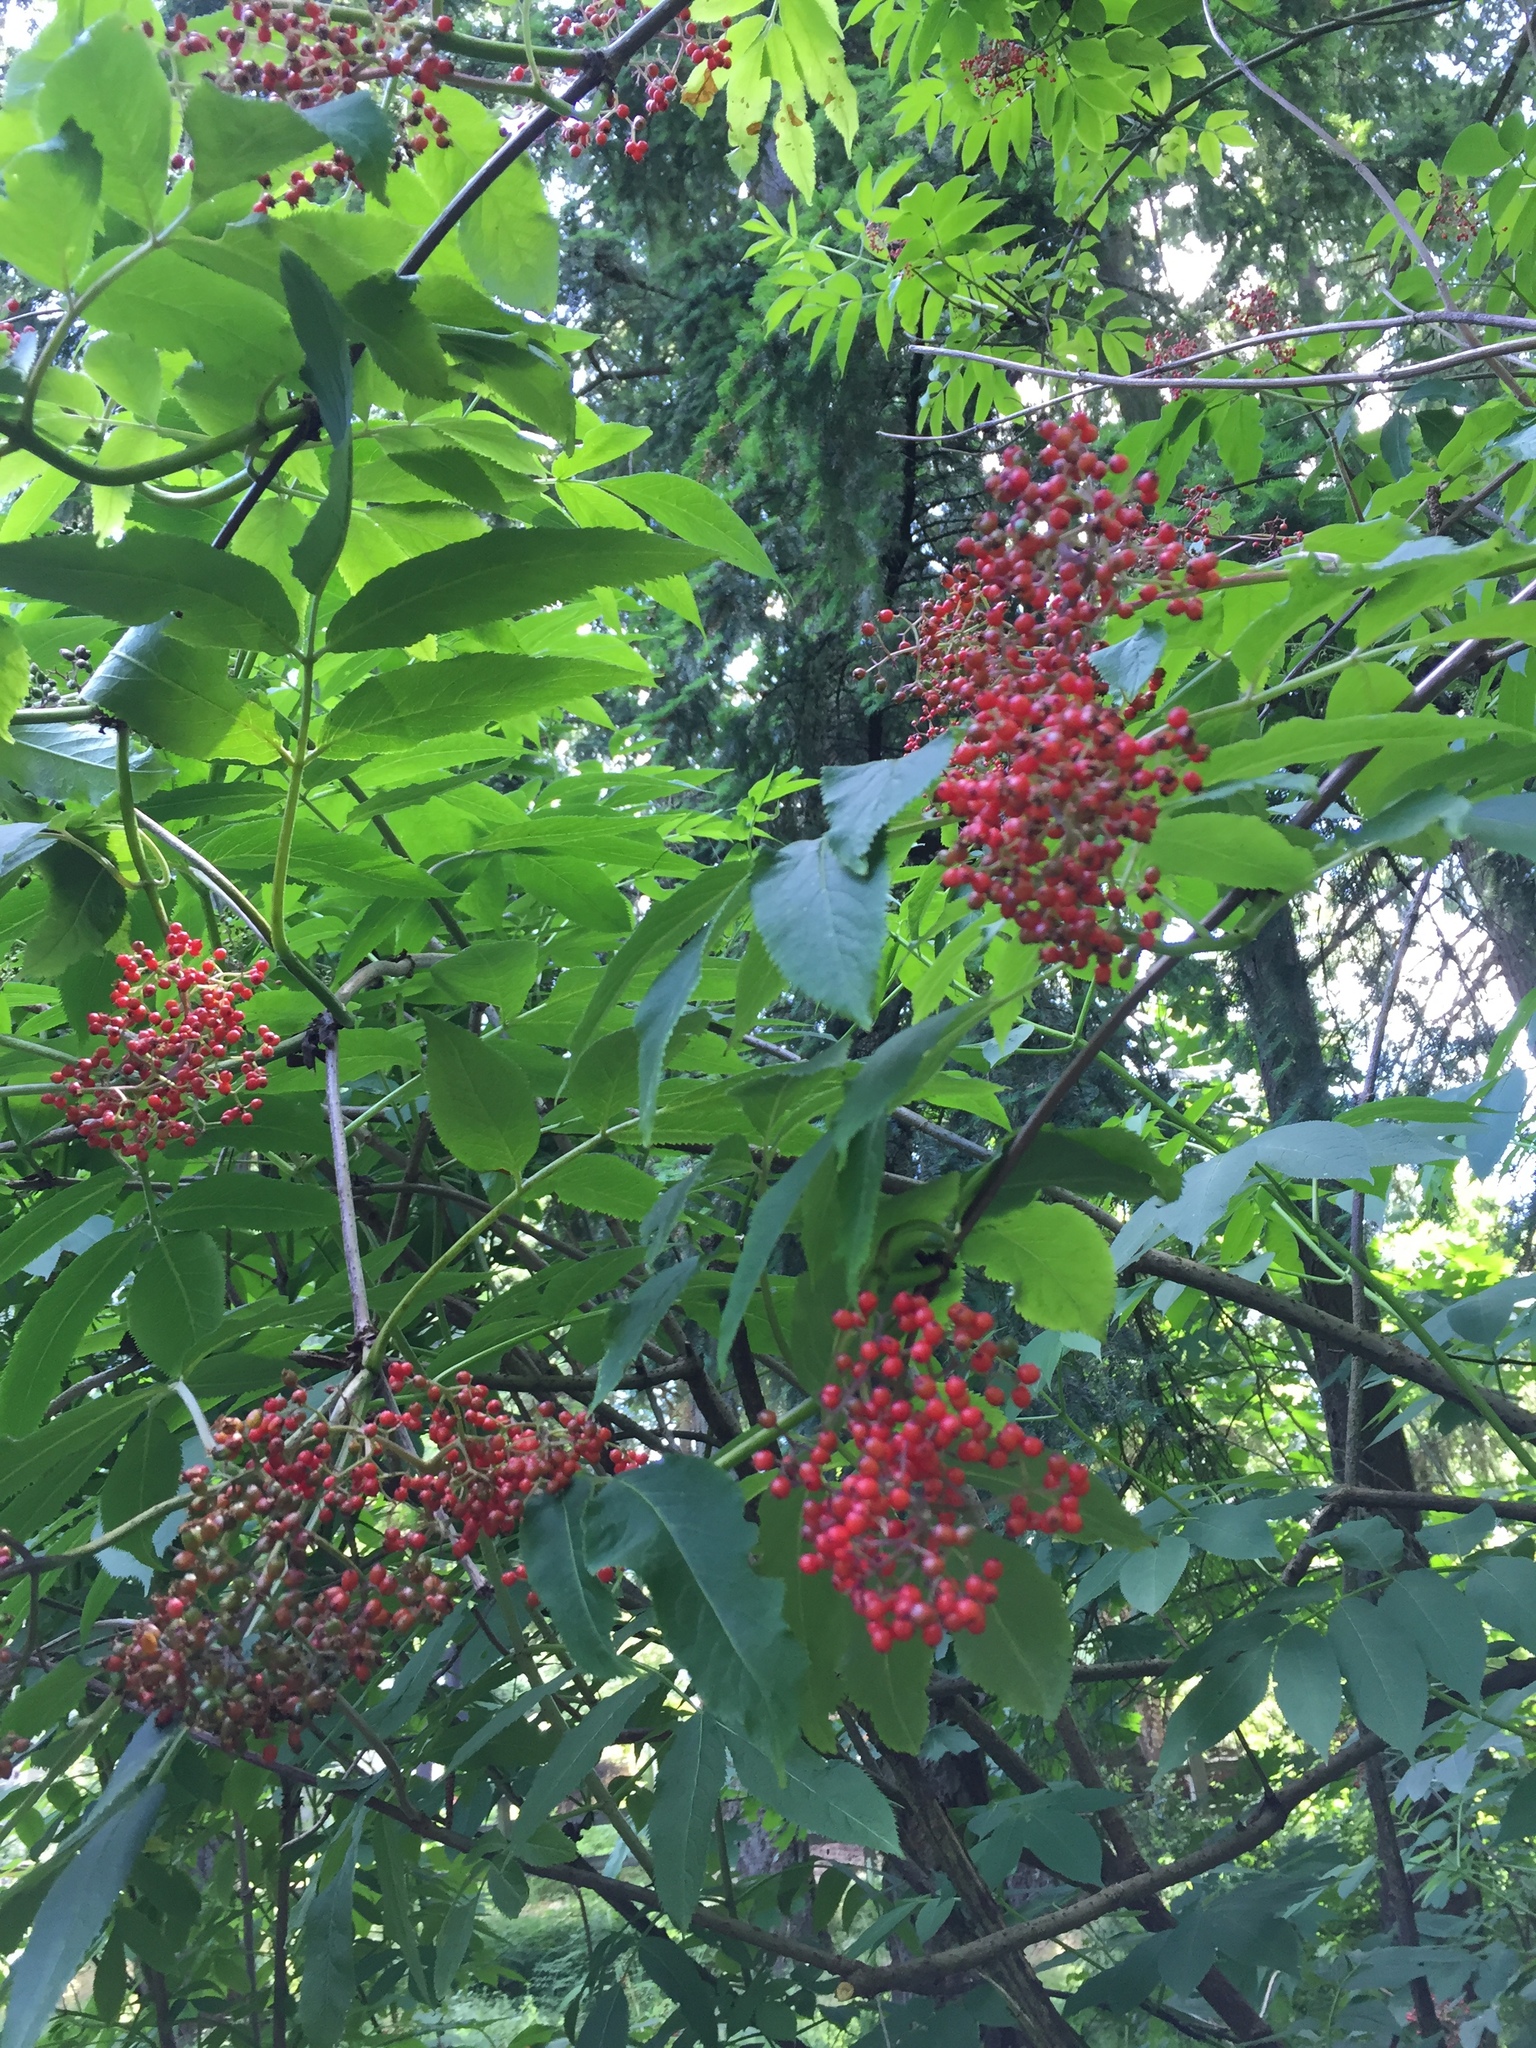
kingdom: Plantae
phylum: Tracheophyta
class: Magnoliopsida
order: Dipsacales
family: Viburnaceae
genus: Sambucus
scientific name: Sambucus racemosa
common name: Red-berried elder
